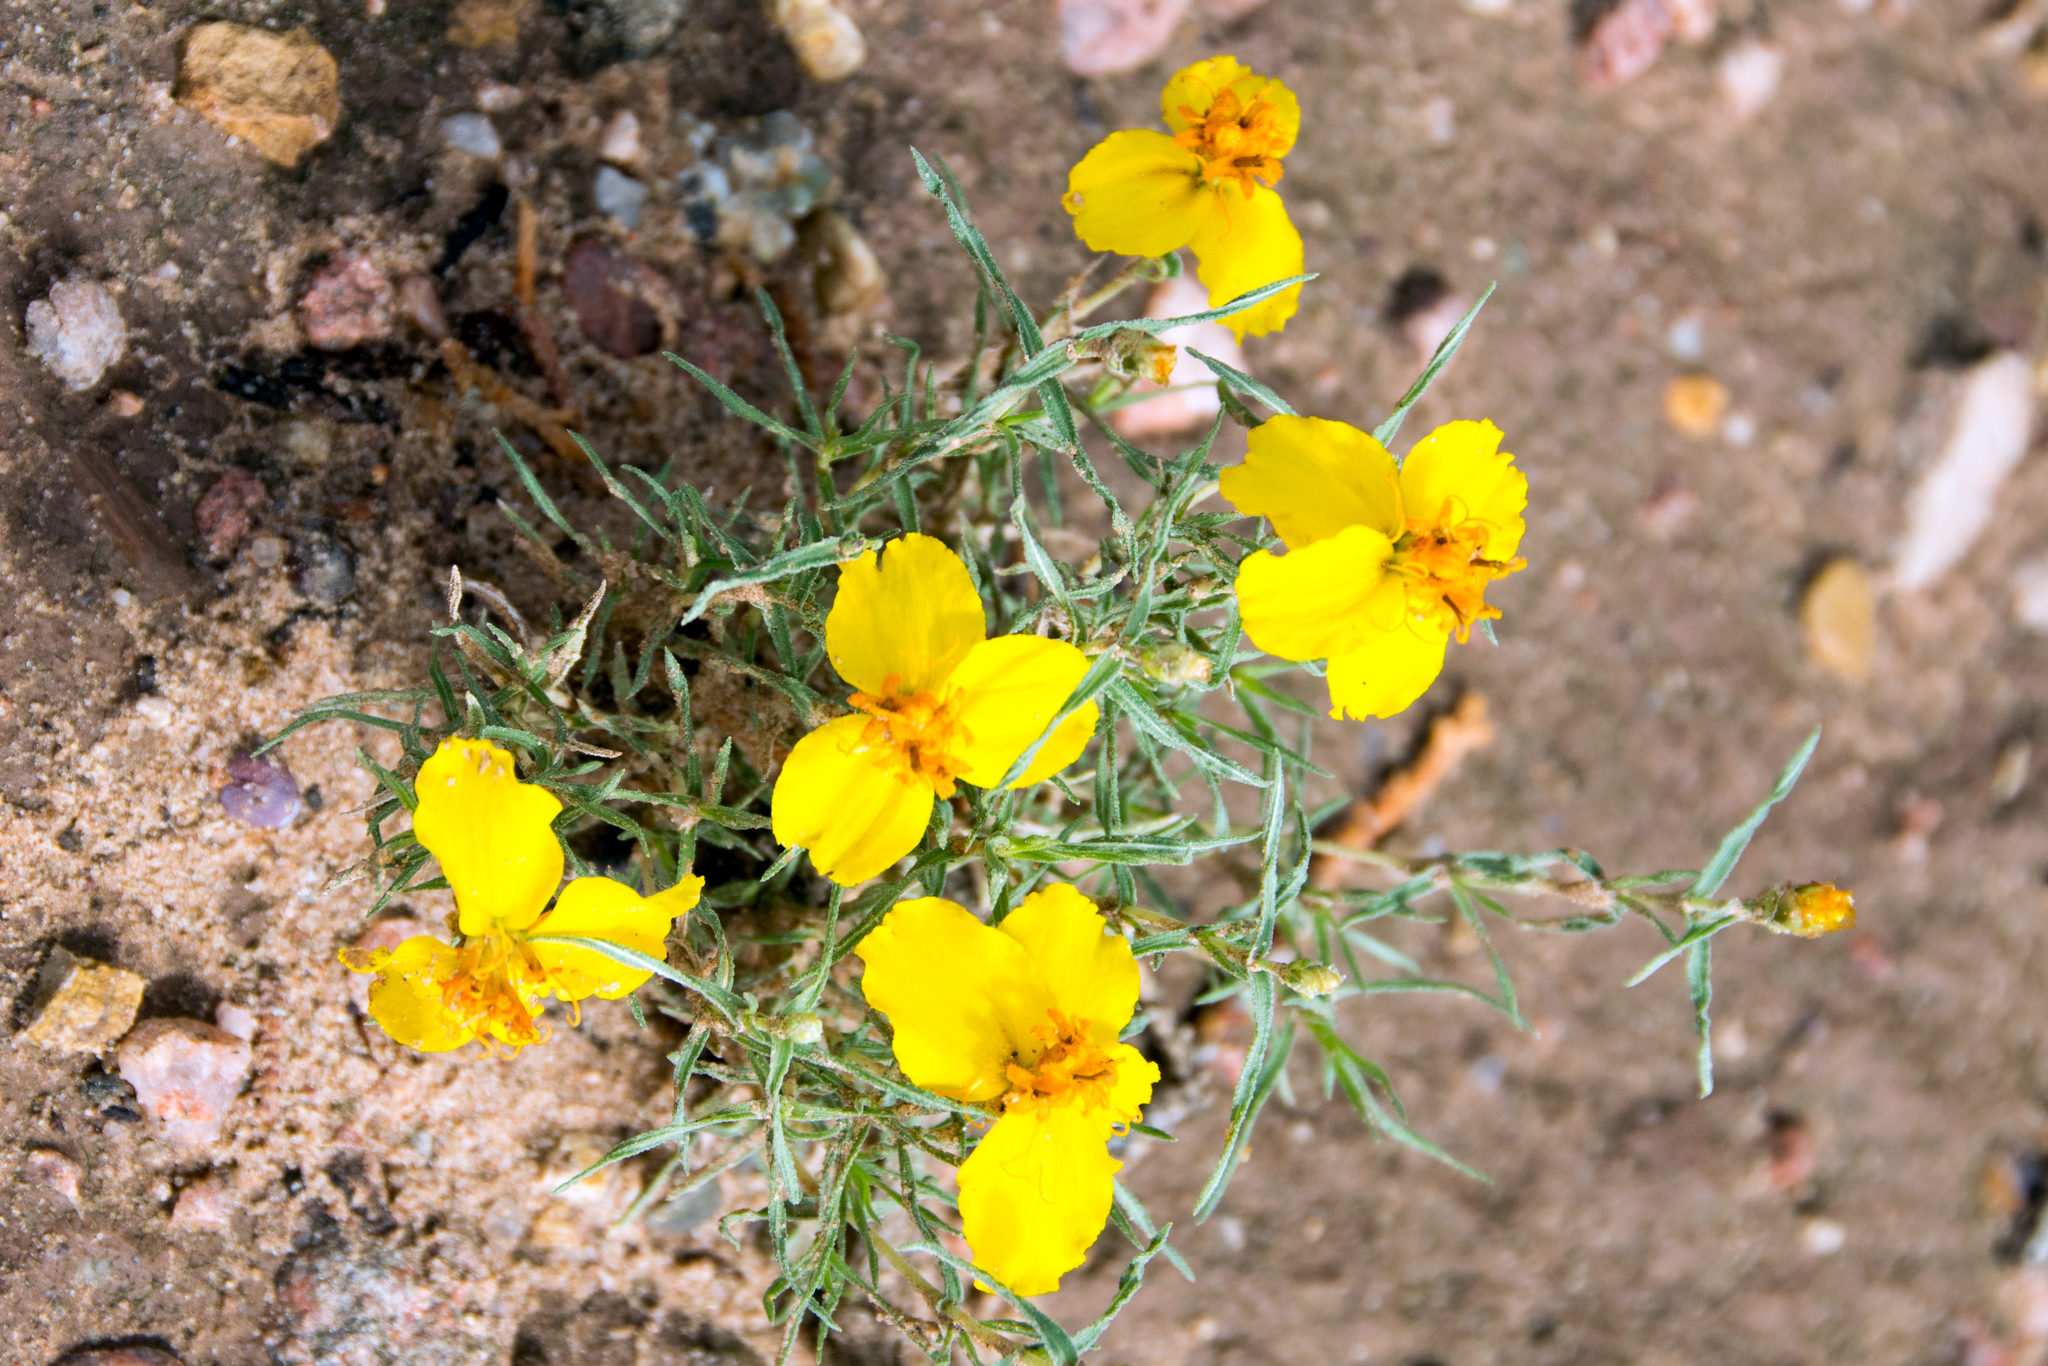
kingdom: Plantae
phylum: Tracheophyta
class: Magnoliopsida
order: Asterales
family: Asteraceae
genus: Zinnia
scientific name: Zinnia grandiflora
